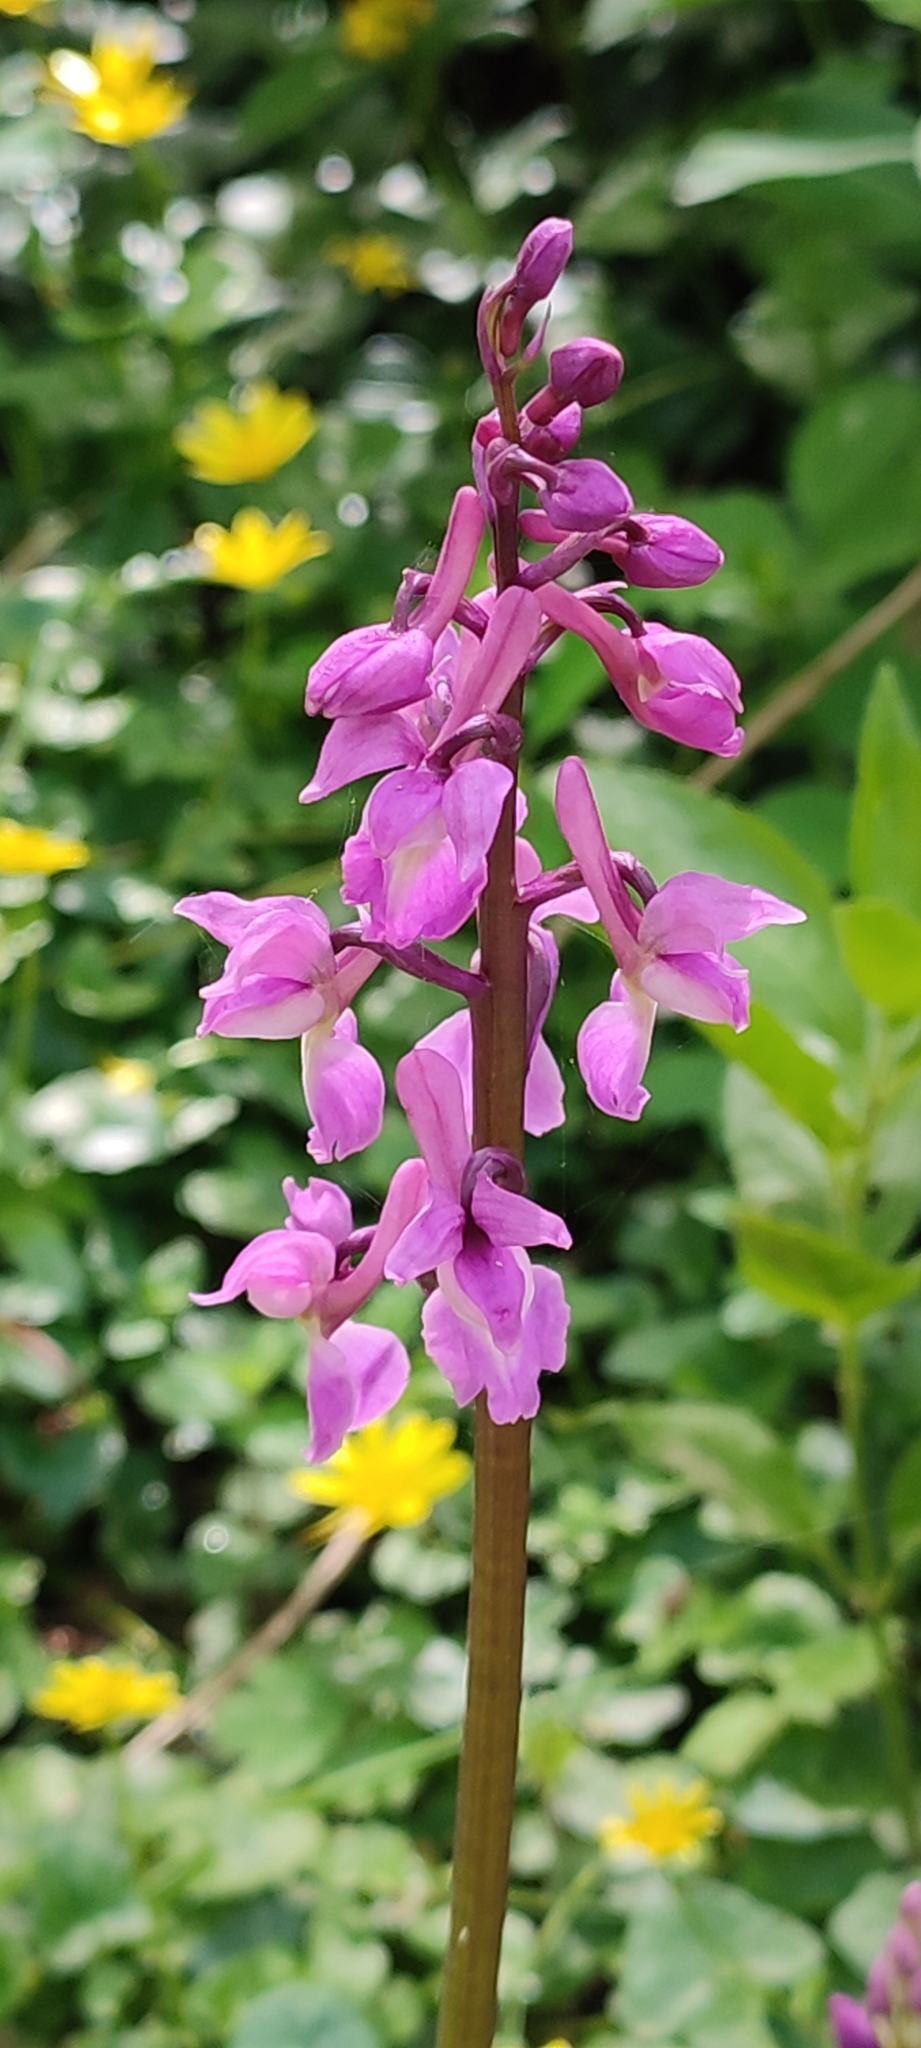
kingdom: Plantae
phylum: Tracheophyta
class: Liliopsida
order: Asparagales
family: Orchidaceae
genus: Orchis
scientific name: Orchis mascula
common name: Early-purple orchid
